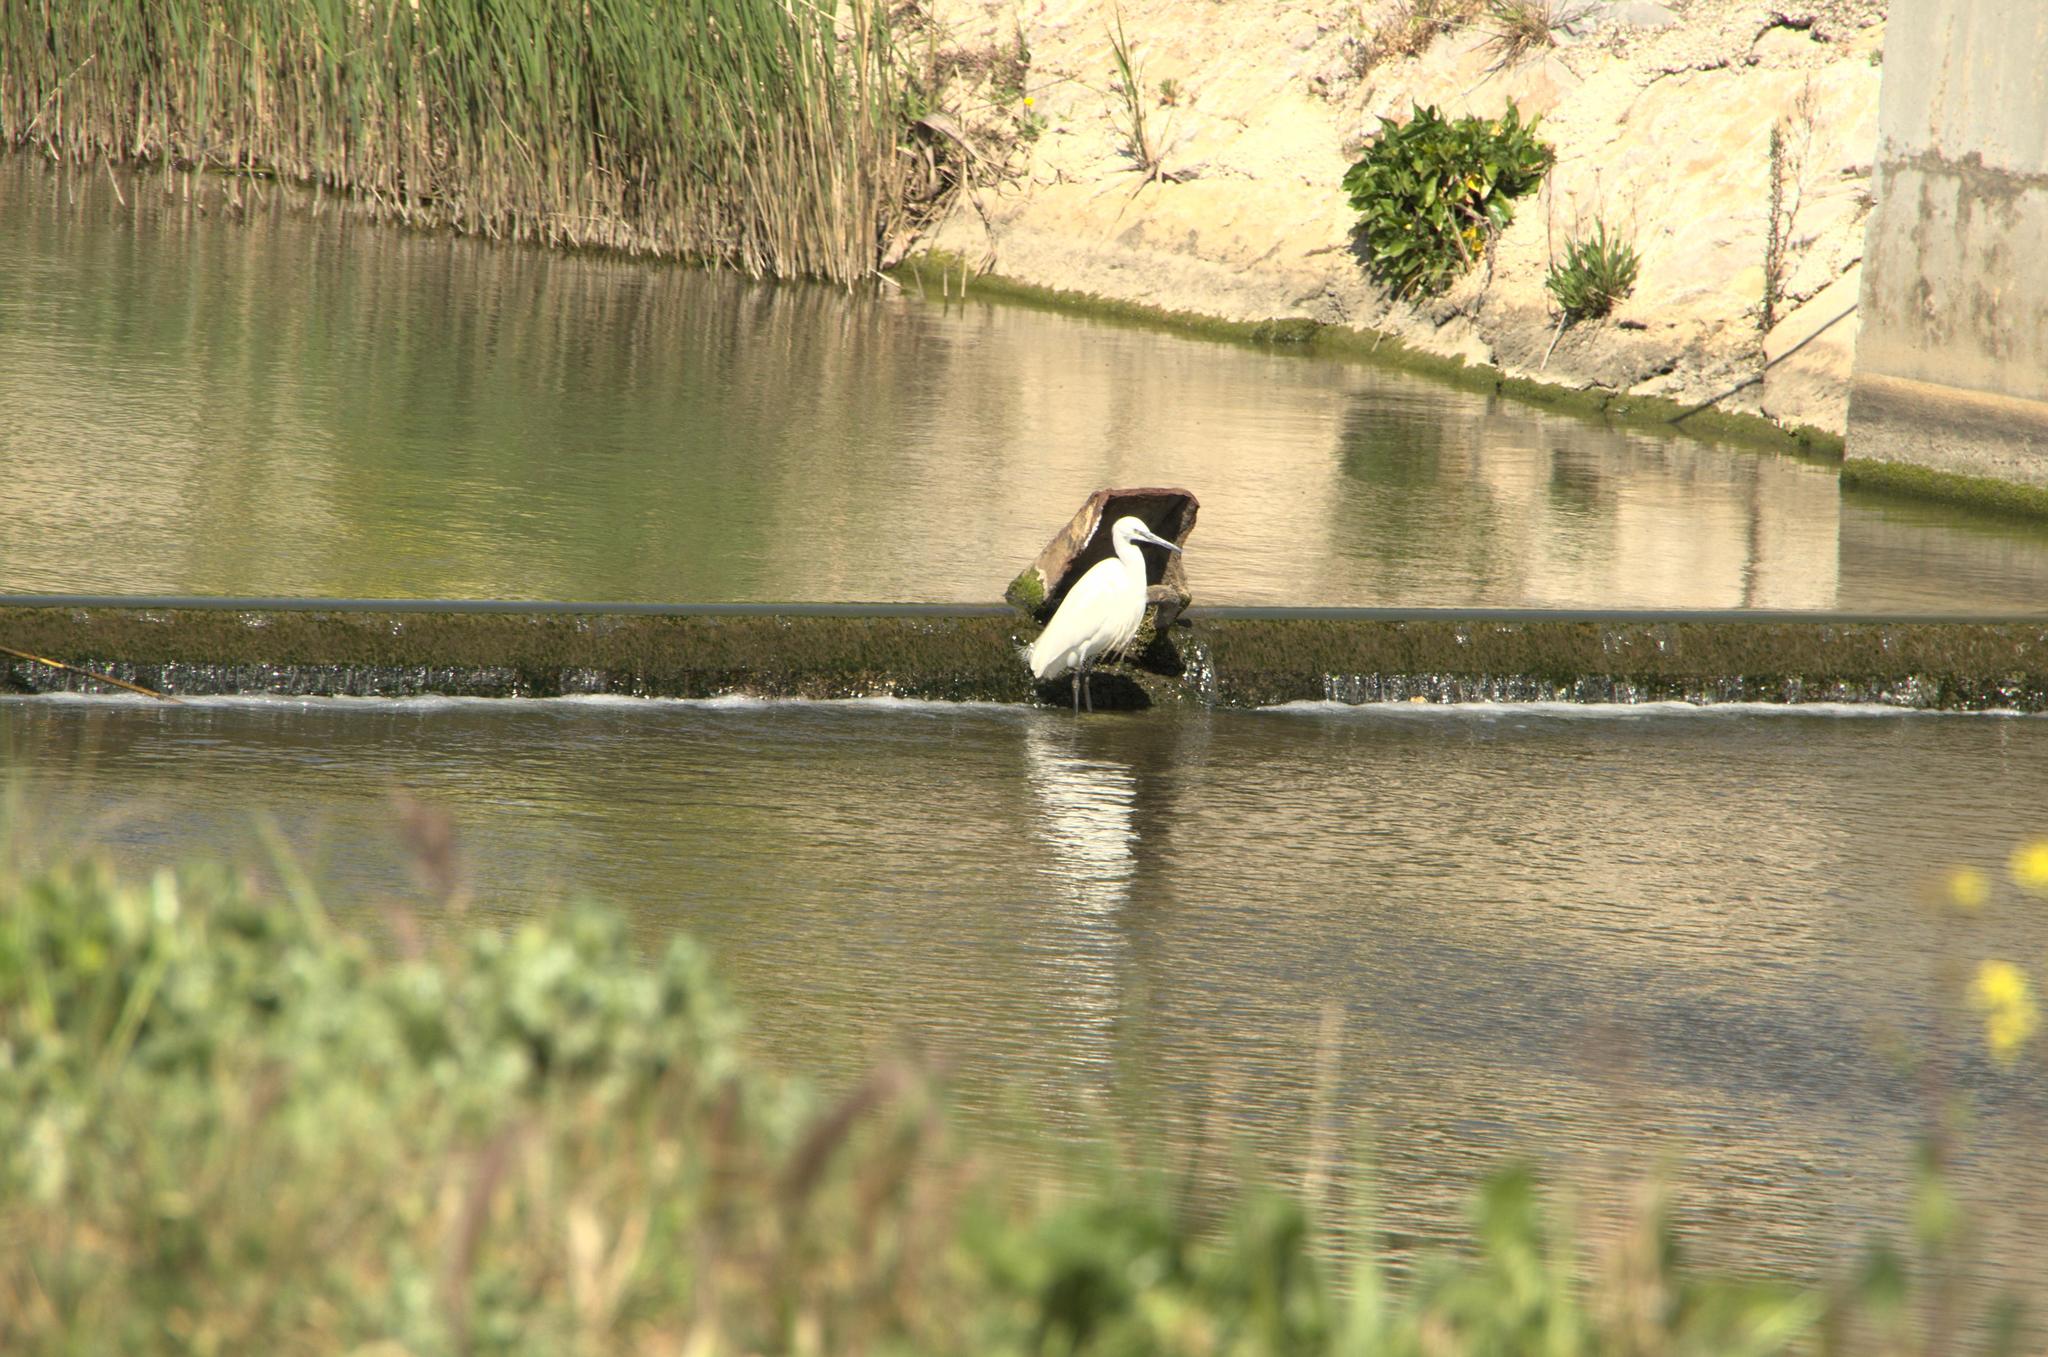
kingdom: Animalia
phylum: Chordata
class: Aves
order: Pelecaniformes
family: Ardeidae
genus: Egretta
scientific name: Egretta garzetta
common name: Little egret
